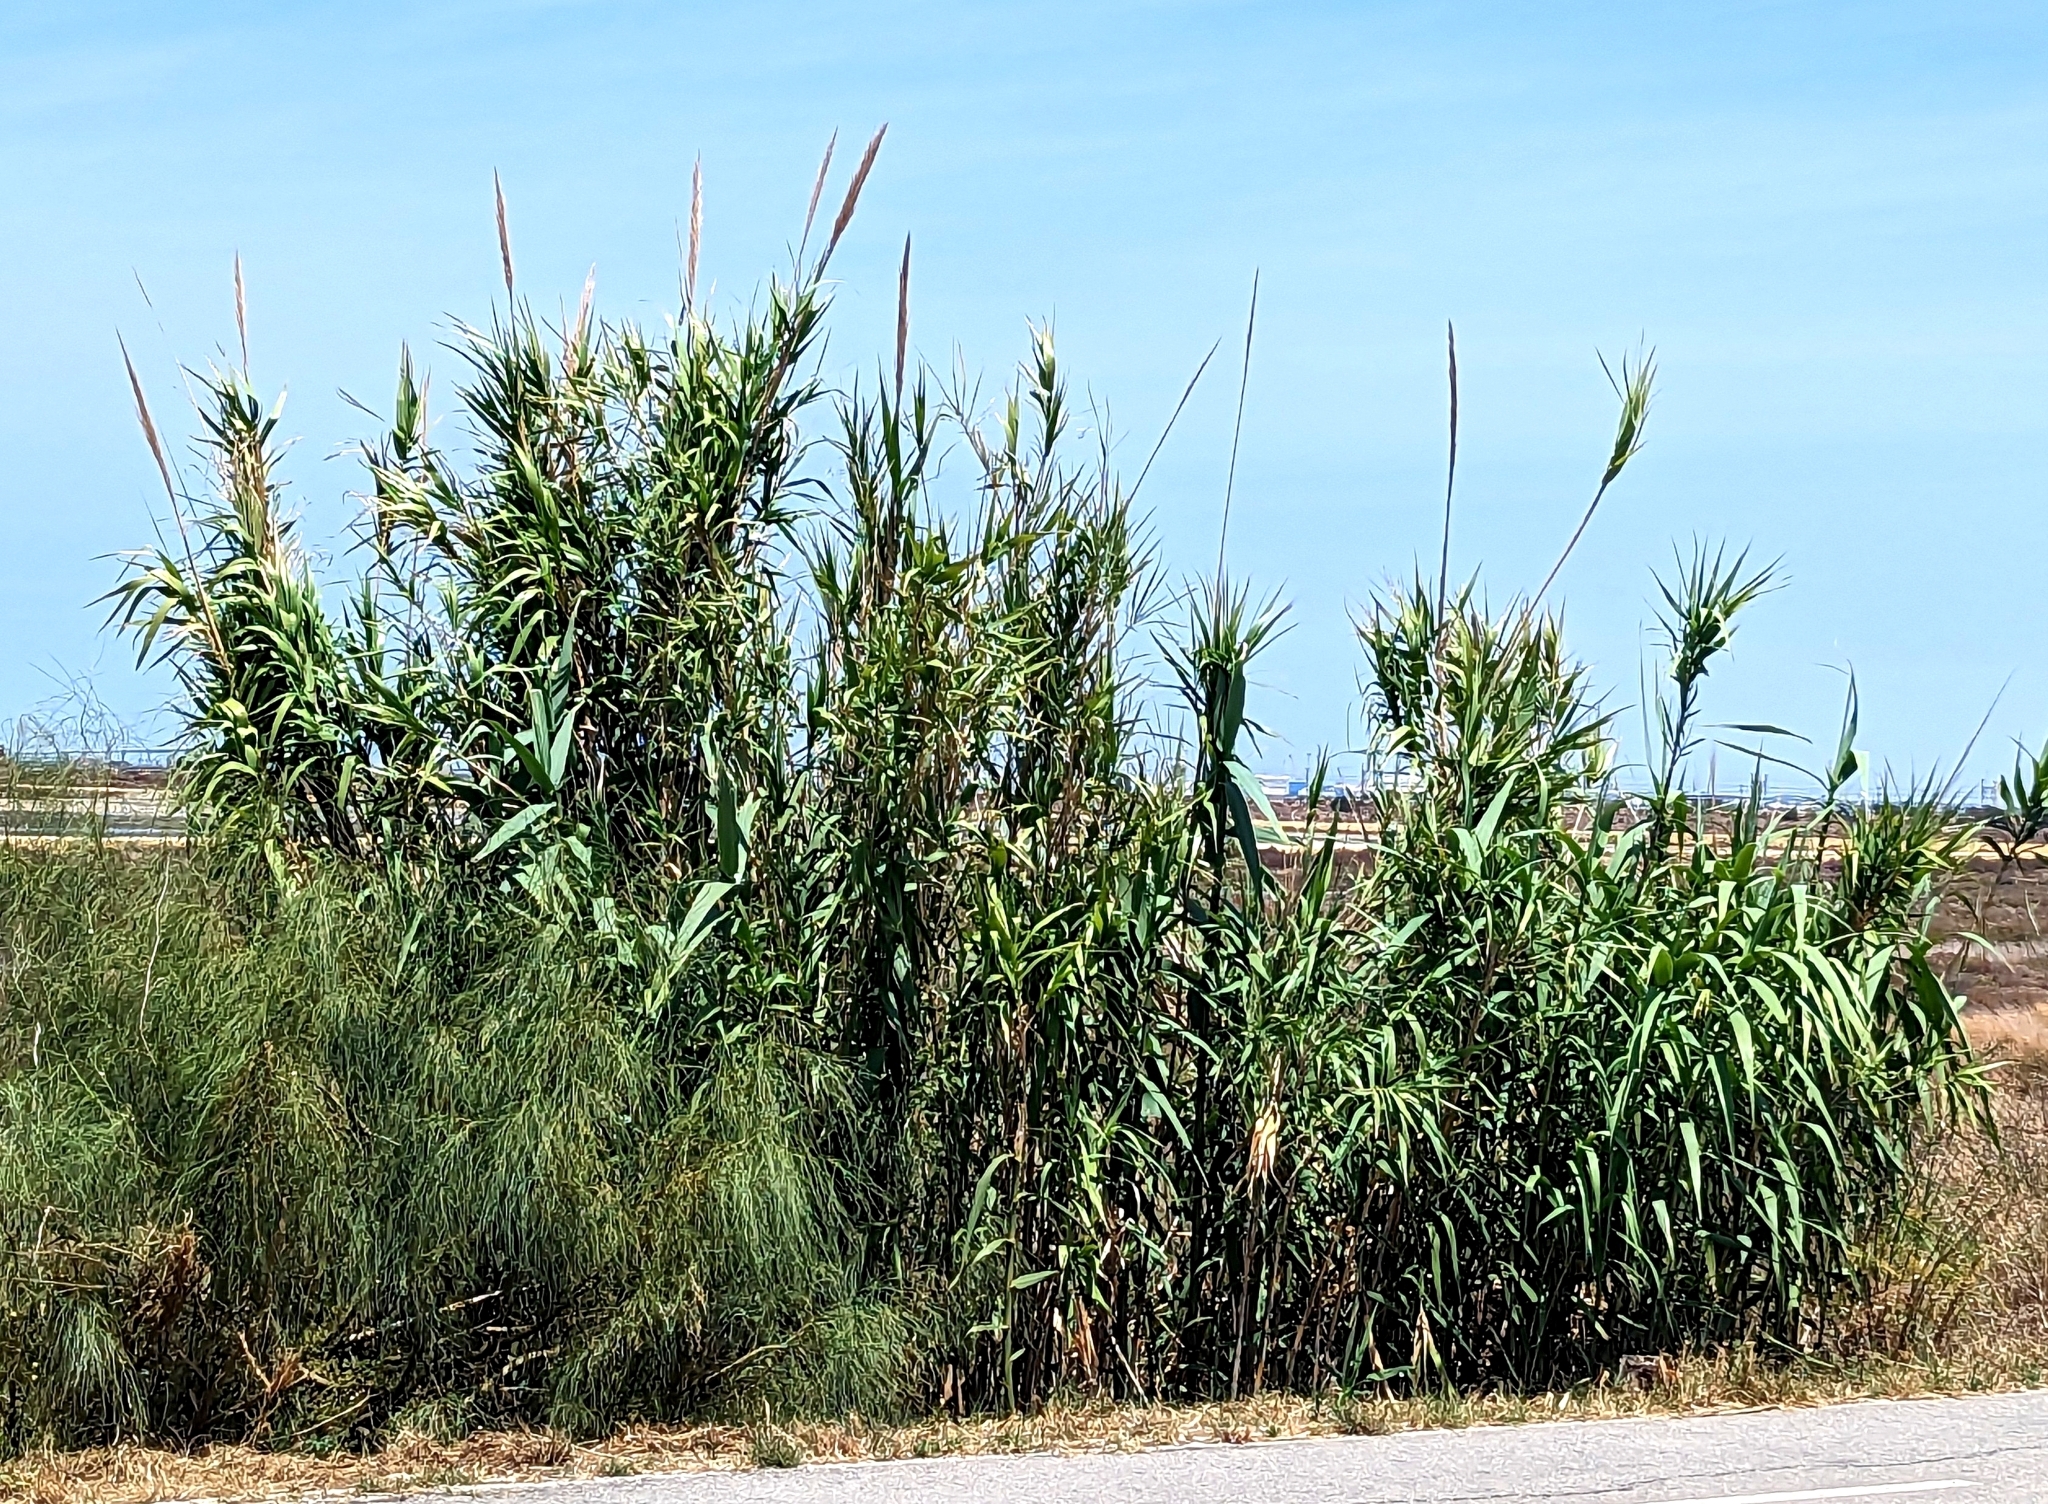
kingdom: Plantae
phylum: Tracheophyta
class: Liliopsida
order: Poales
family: Poaceae
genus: Arundo
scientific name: Arundo donax
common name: Giant reed
